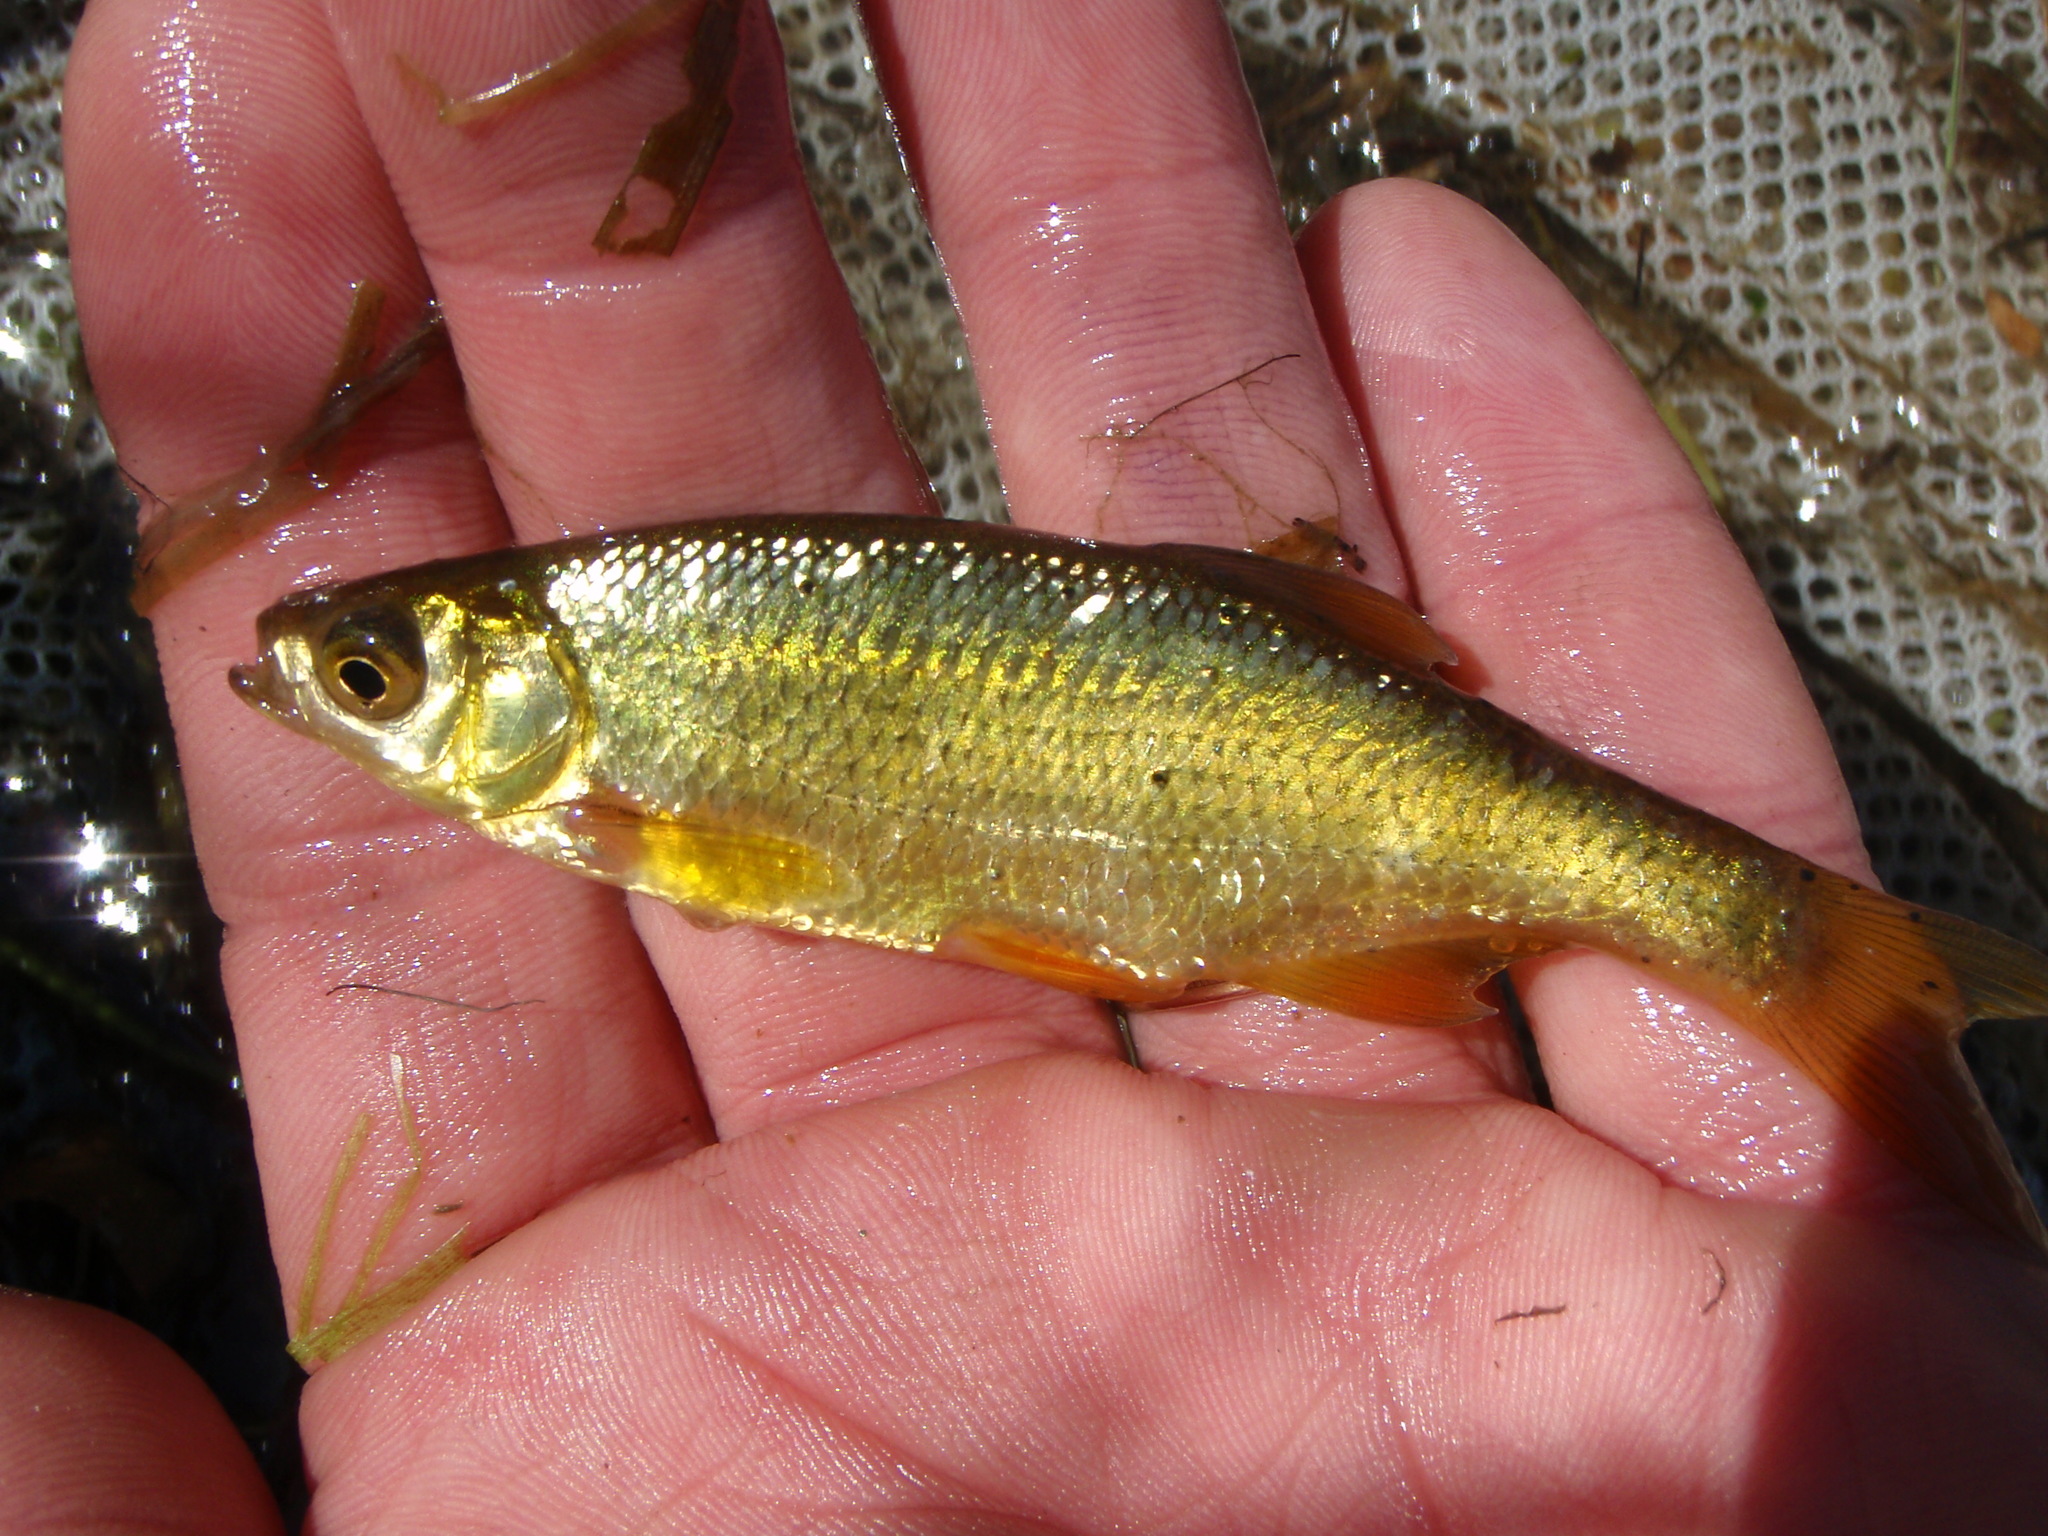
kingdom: Animalia
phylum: Chordata
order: Cypriniformes
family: Cyprinidae
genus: Notemigonus
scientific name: Notemigonus crysoleucas
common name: Golden shiner
